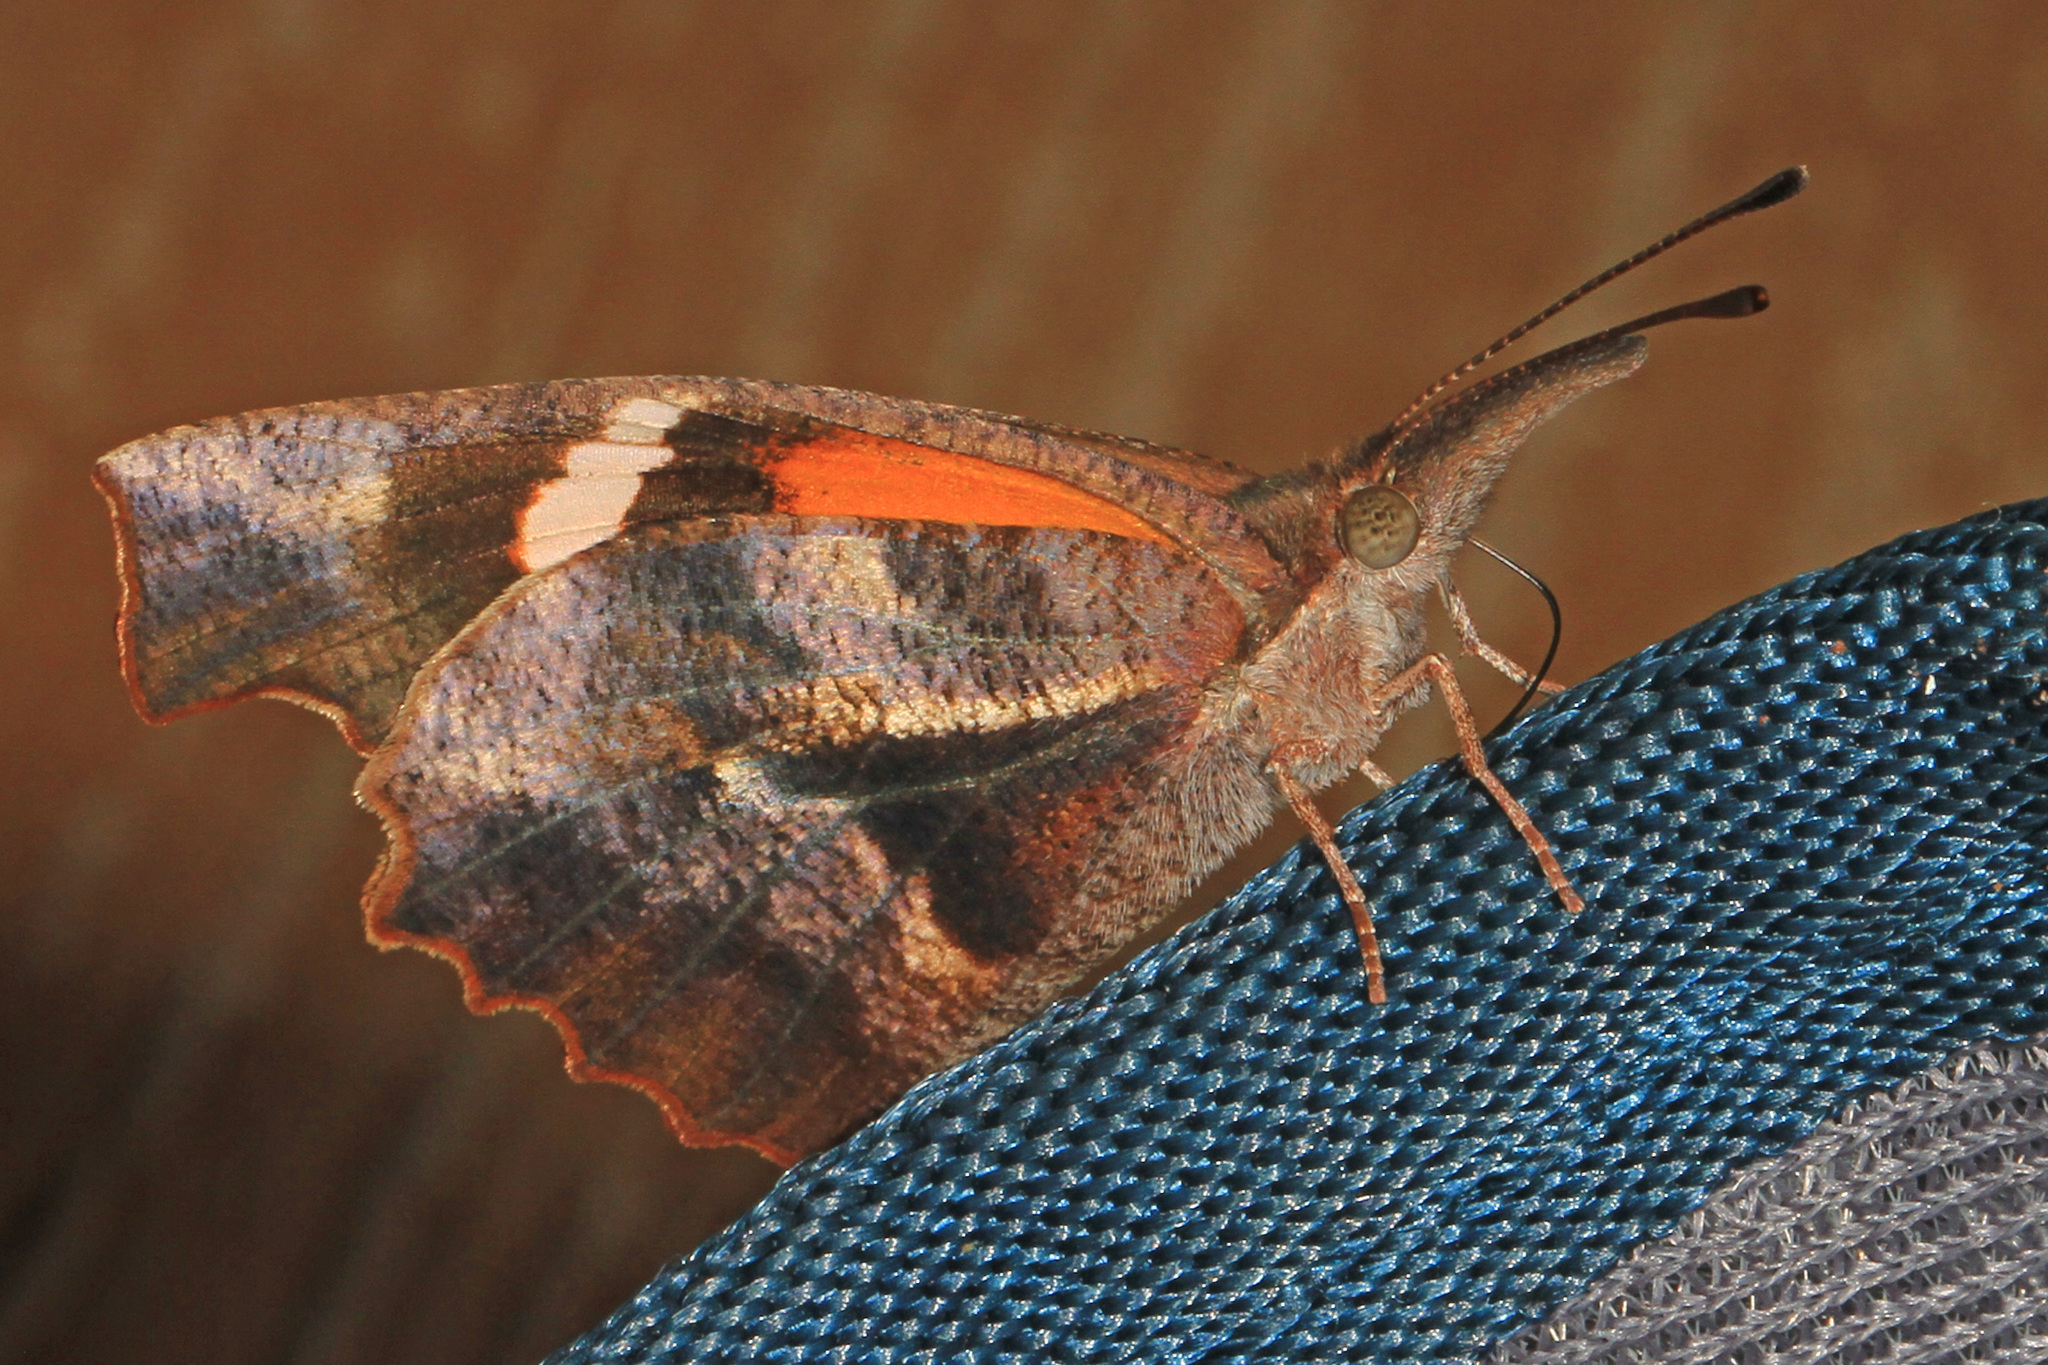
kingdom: Animalia
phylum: Arthropoda
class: Insecta
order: Lepidoptera
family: Nymphalidae
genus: Libytheana
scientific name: Libytheana carinenta
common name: American snout
